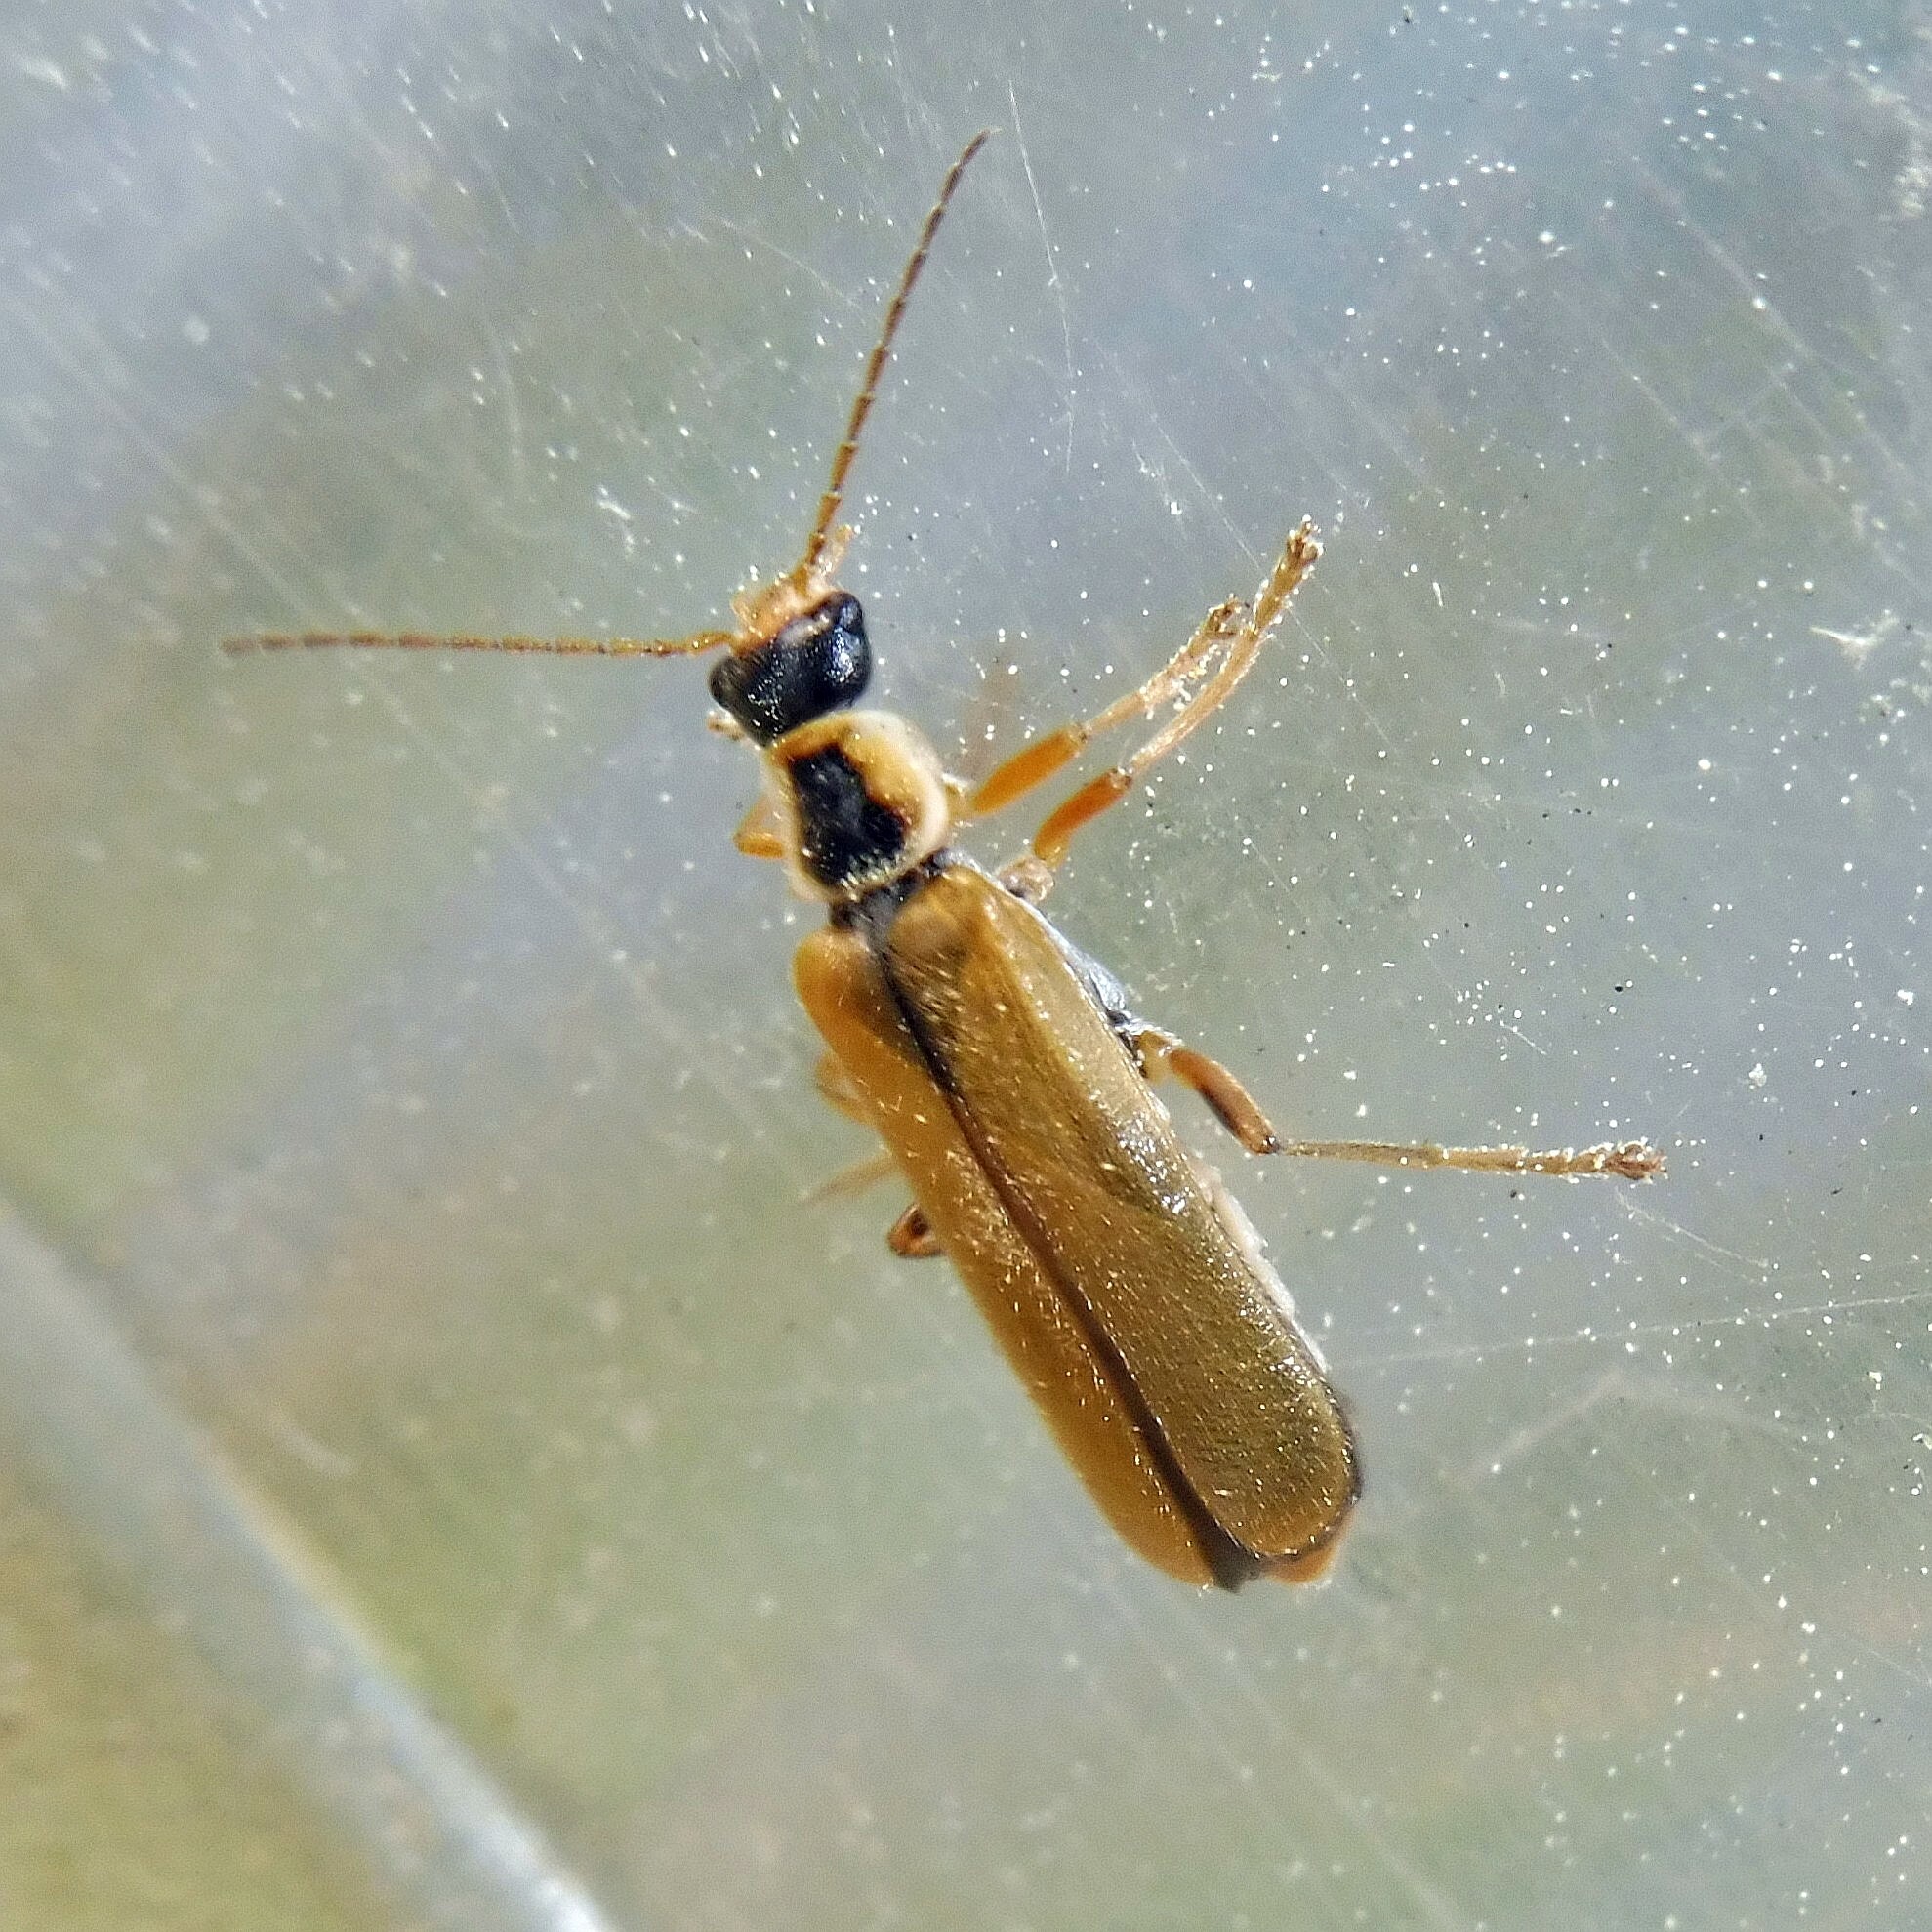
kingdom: Animalia
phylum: Arthropoda
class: Insecta
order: Coleoptera
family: Cantharidae
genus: Cantharis
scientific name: Cantharis decipiens
